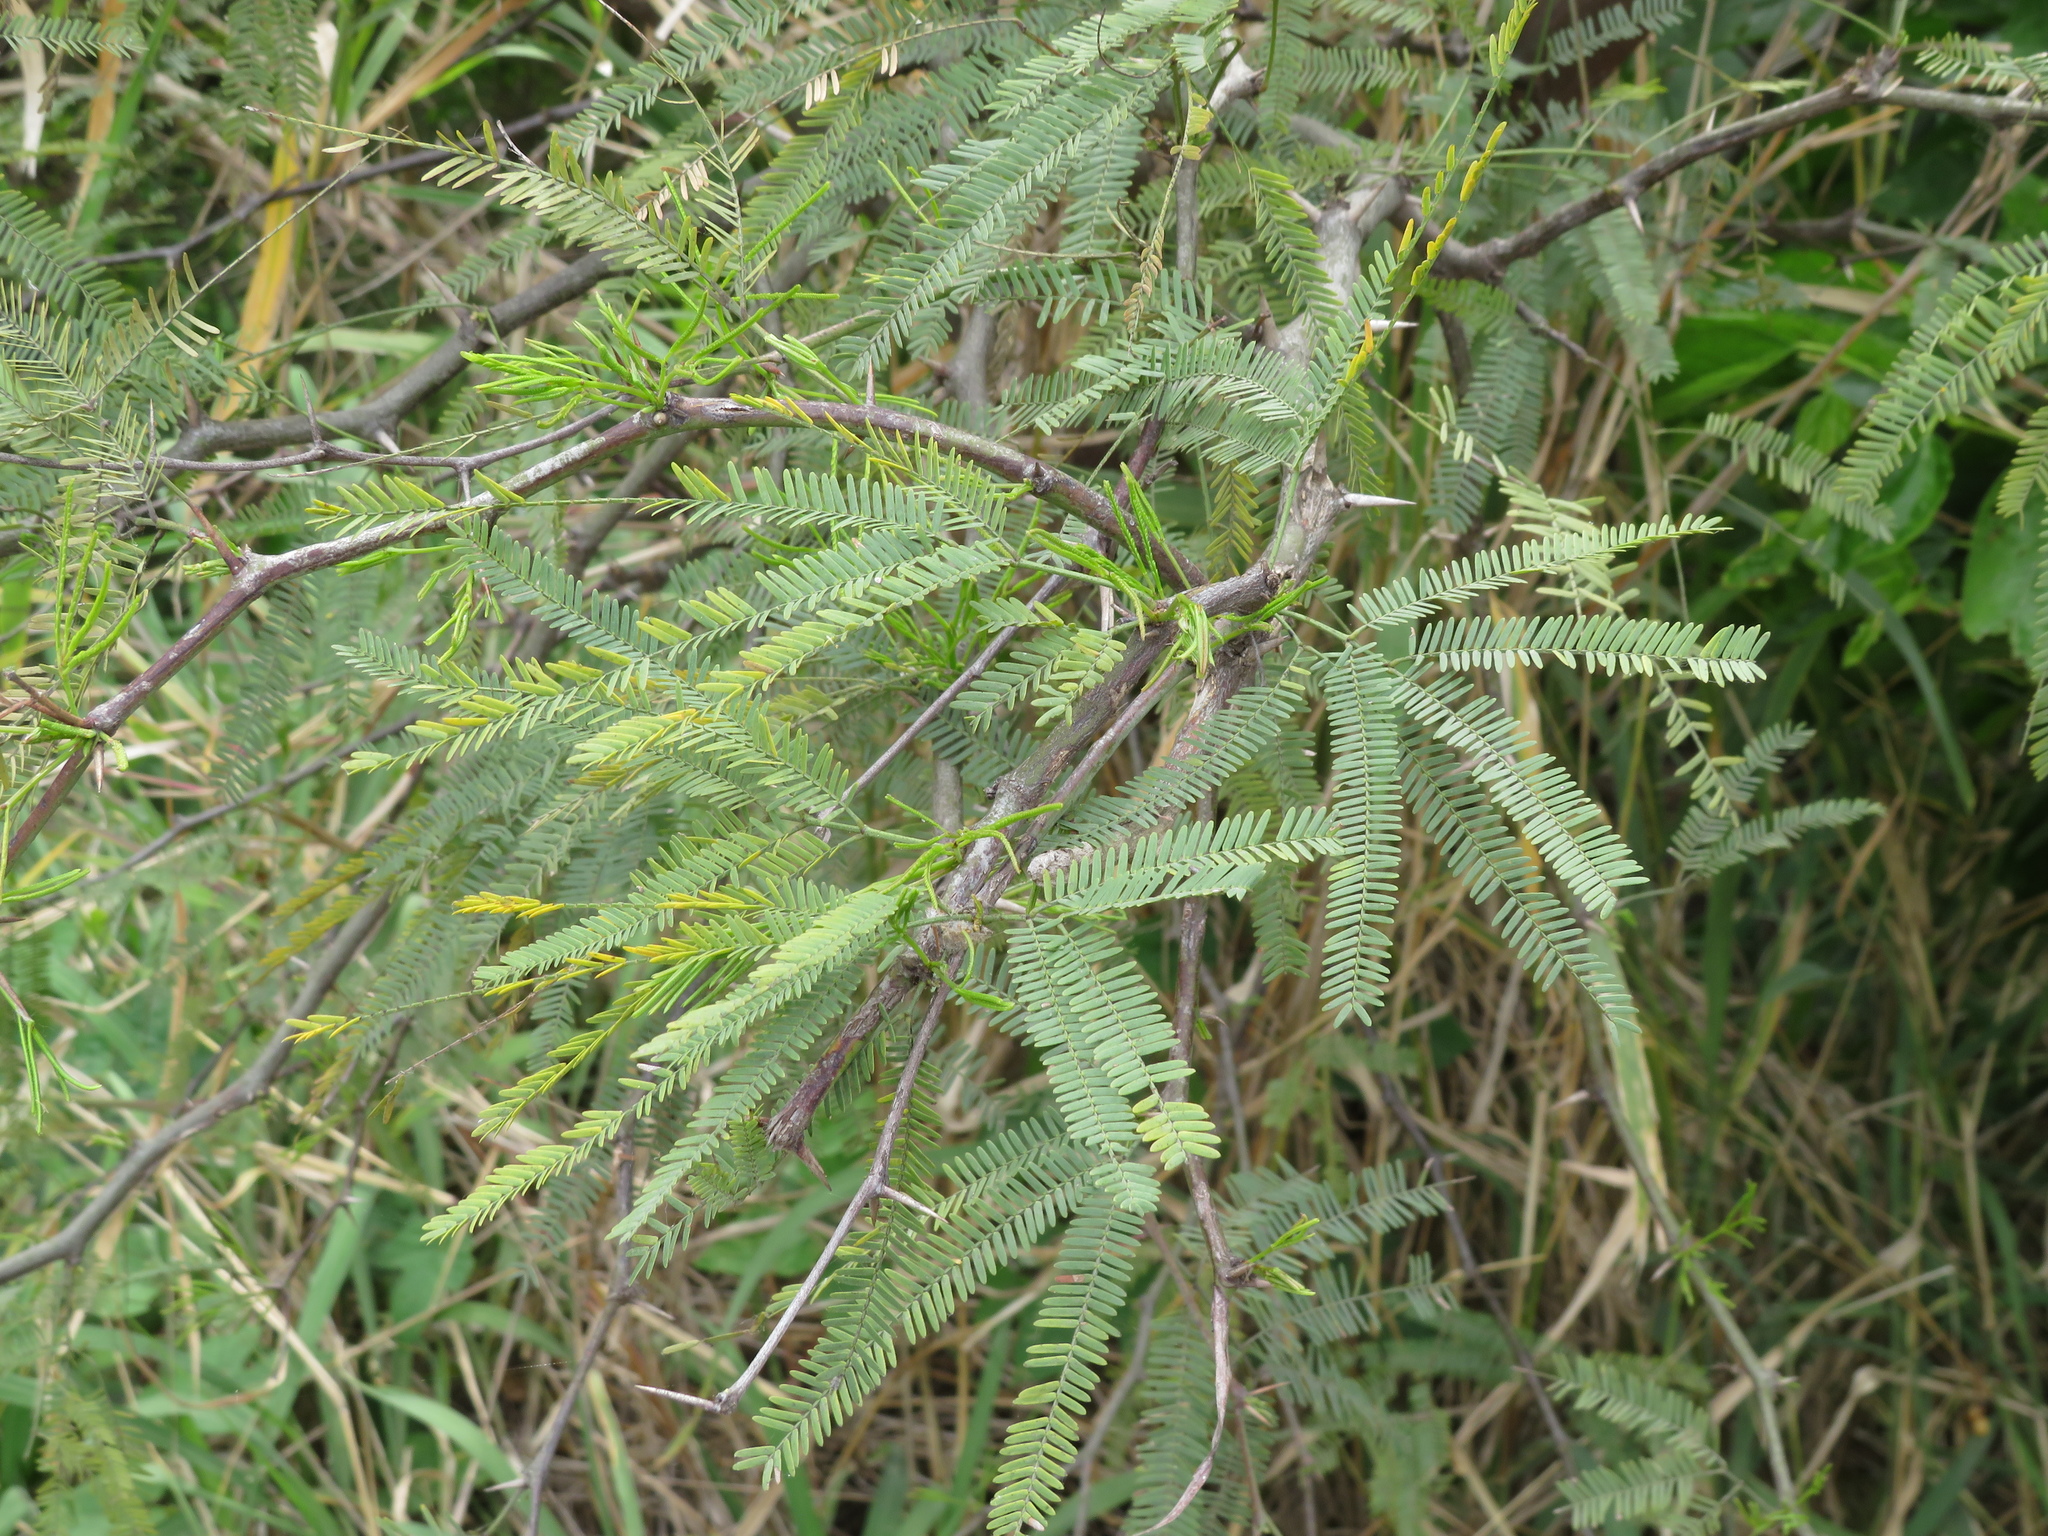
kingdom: Plantae
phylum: Tracheophyta
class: Magnoliopsida
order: Fabales
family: Fabaceae
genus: Prosopis
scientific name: Prosopis alba
